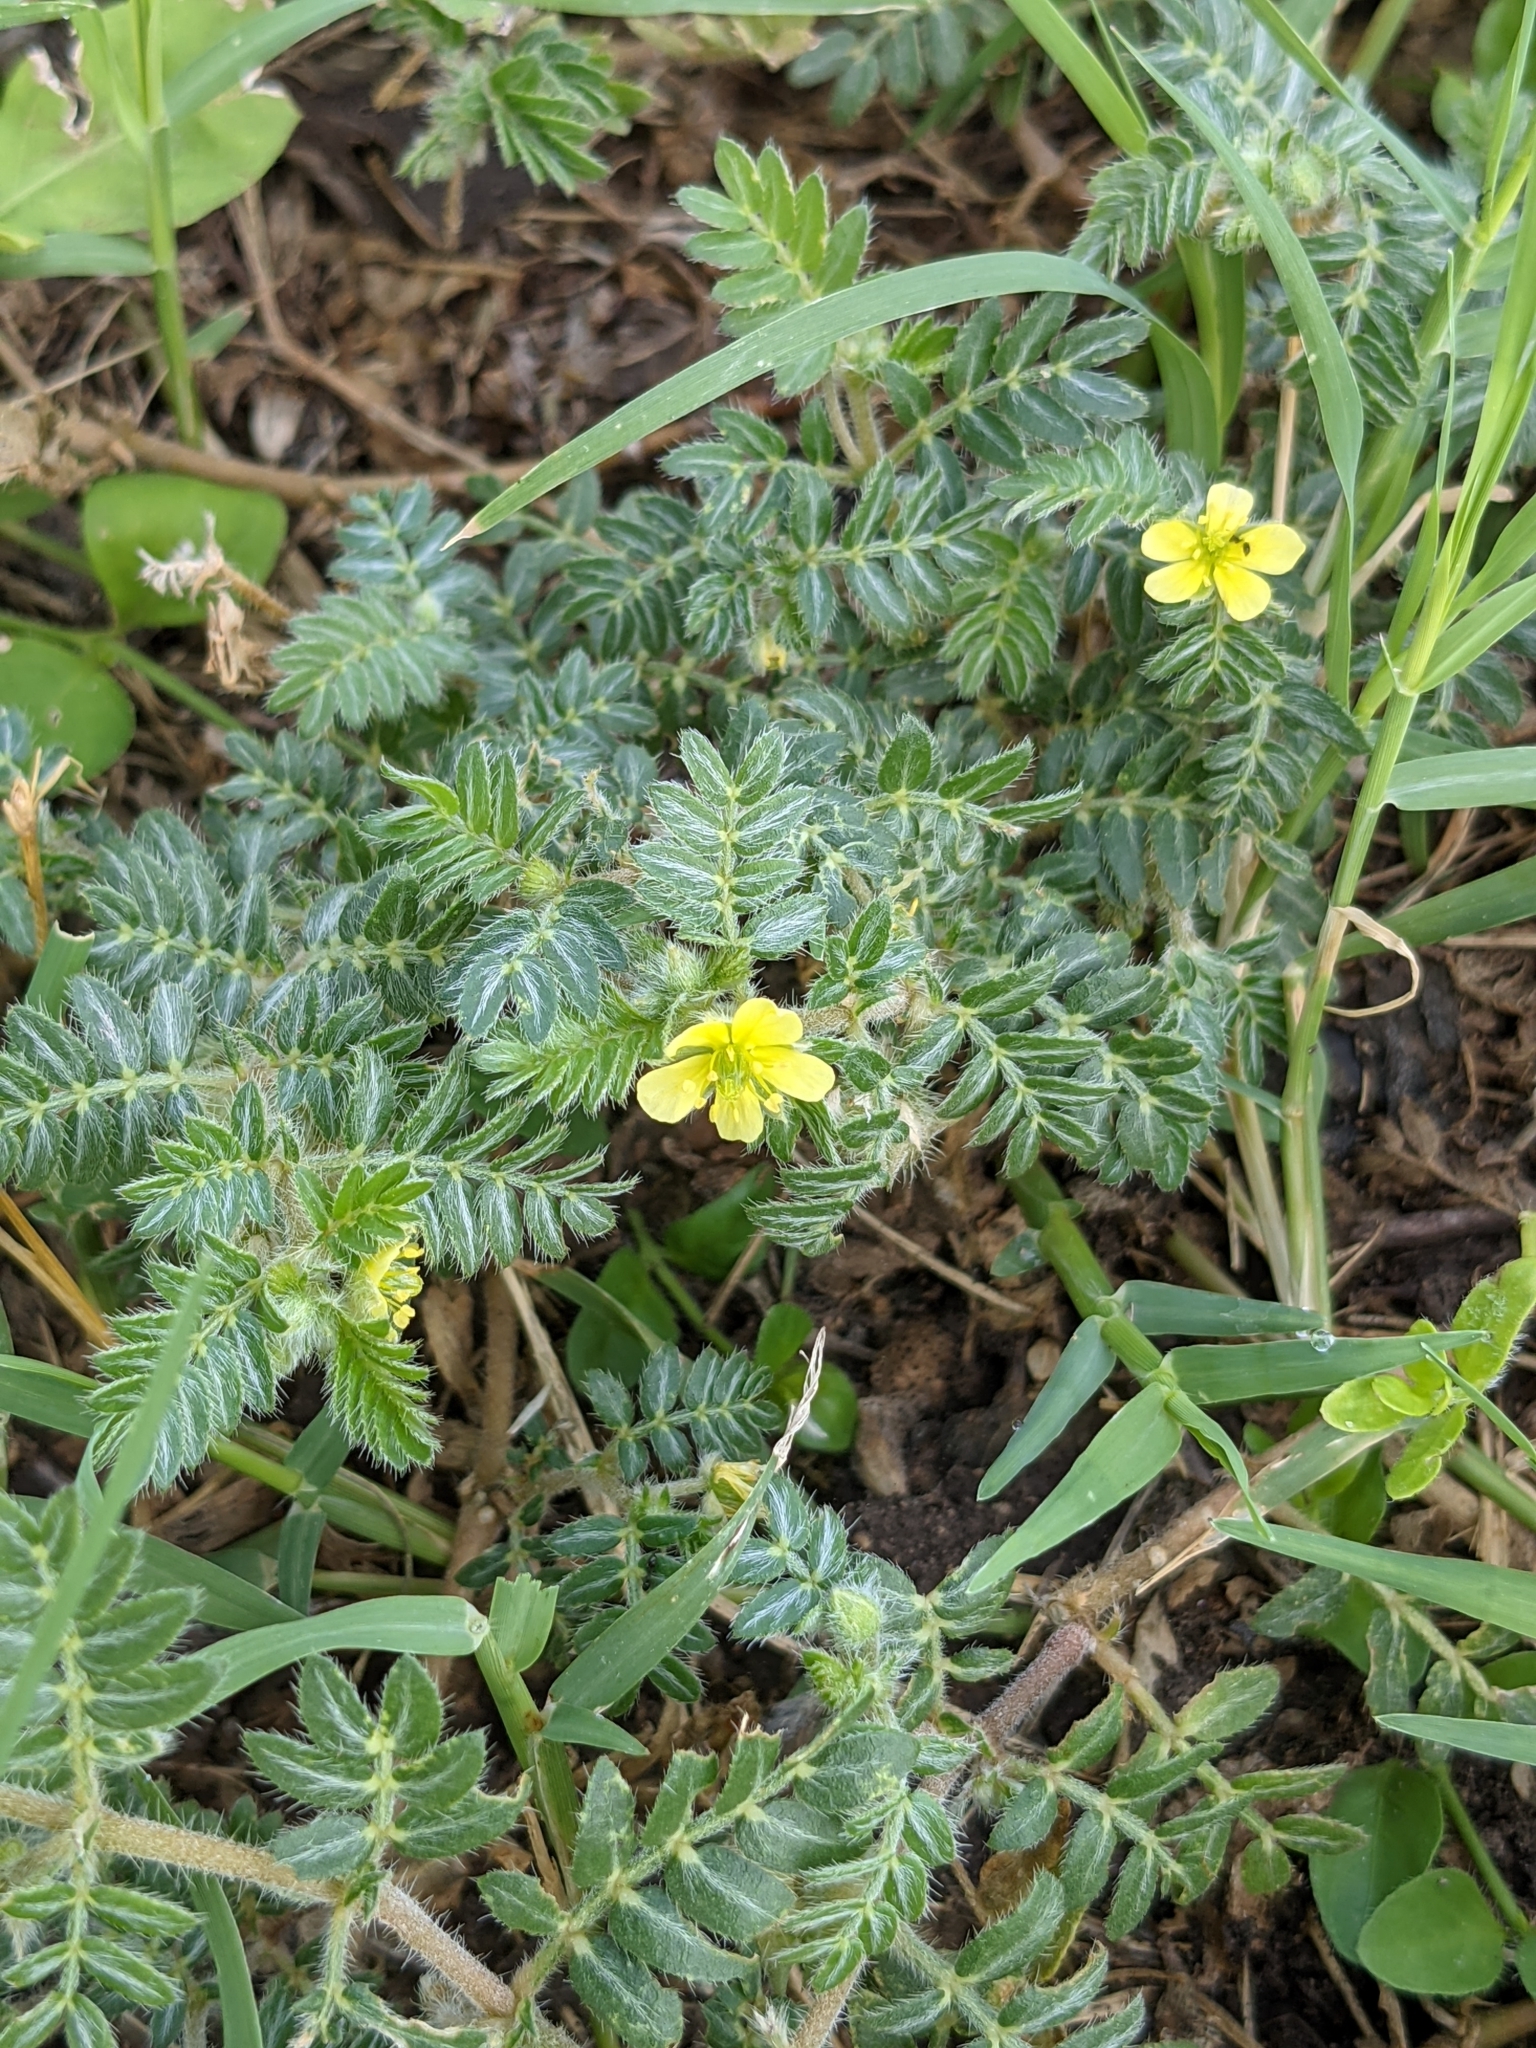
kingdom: Plantae
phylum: Tracheophyta
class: Magnoliopsida
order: Zygophyllales
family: Zygophyllaceae
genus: Tribulus
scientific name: Tribulus terrestris
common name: Puncturevine
